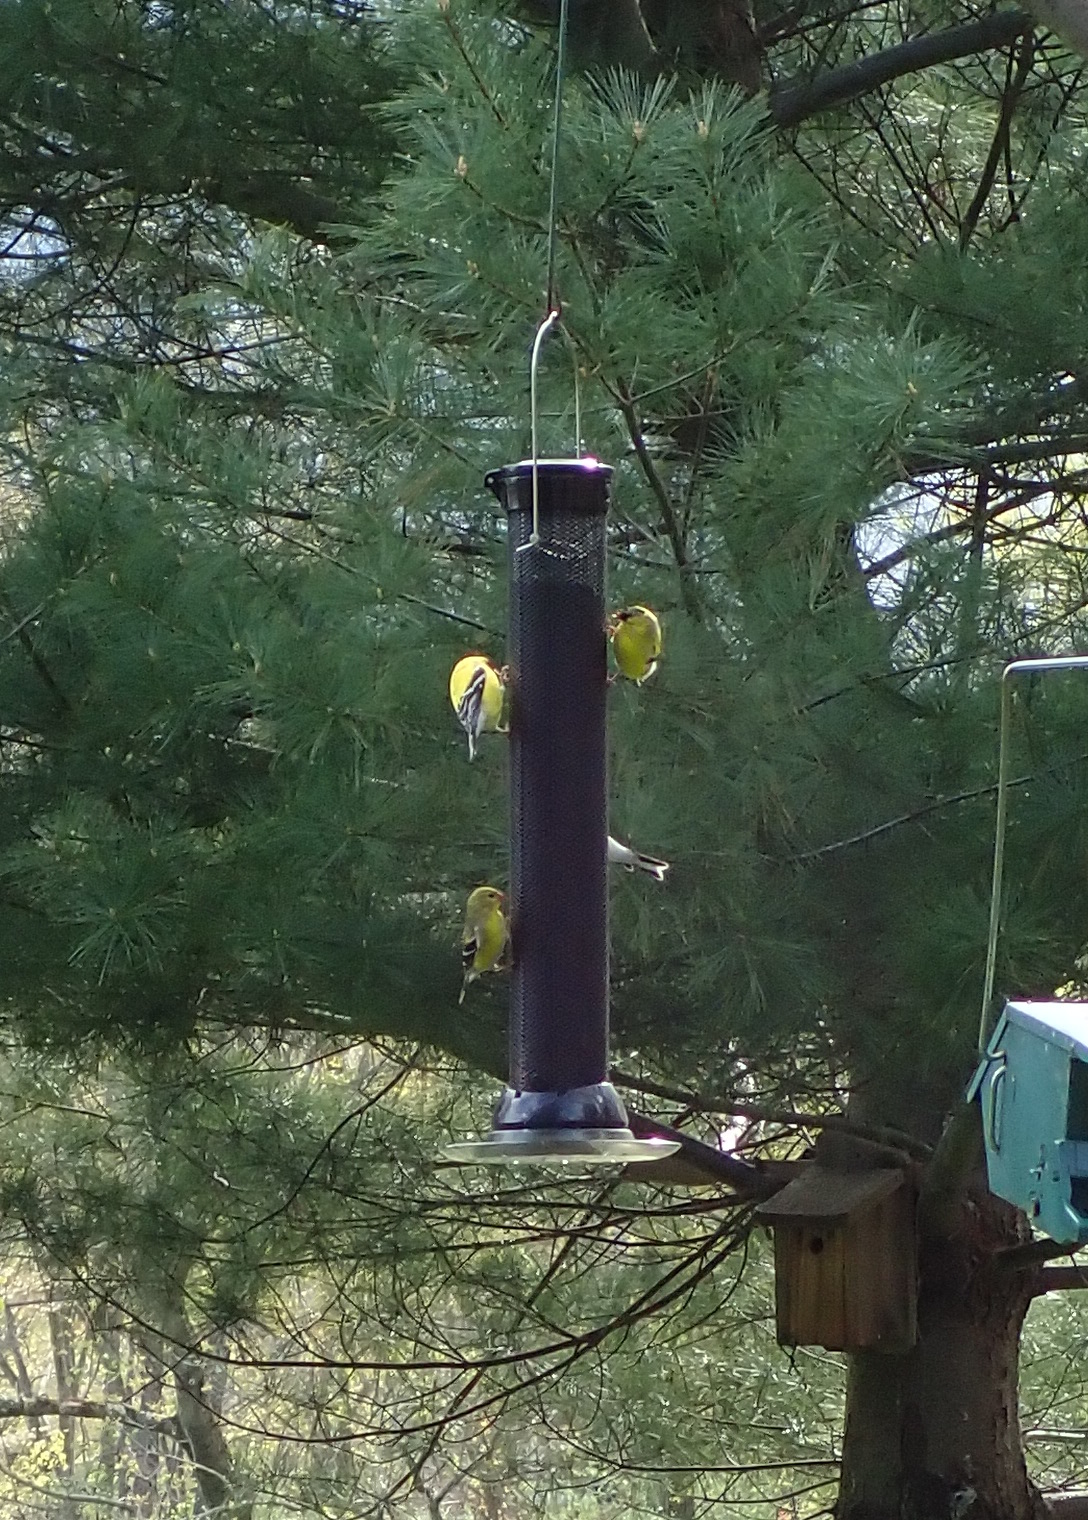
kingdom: Animalia
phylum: Chordata
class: Aves
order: Passeriformes
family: Fringillidae
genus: Spinus
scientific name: Spinus tristis
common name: American goldfinch
